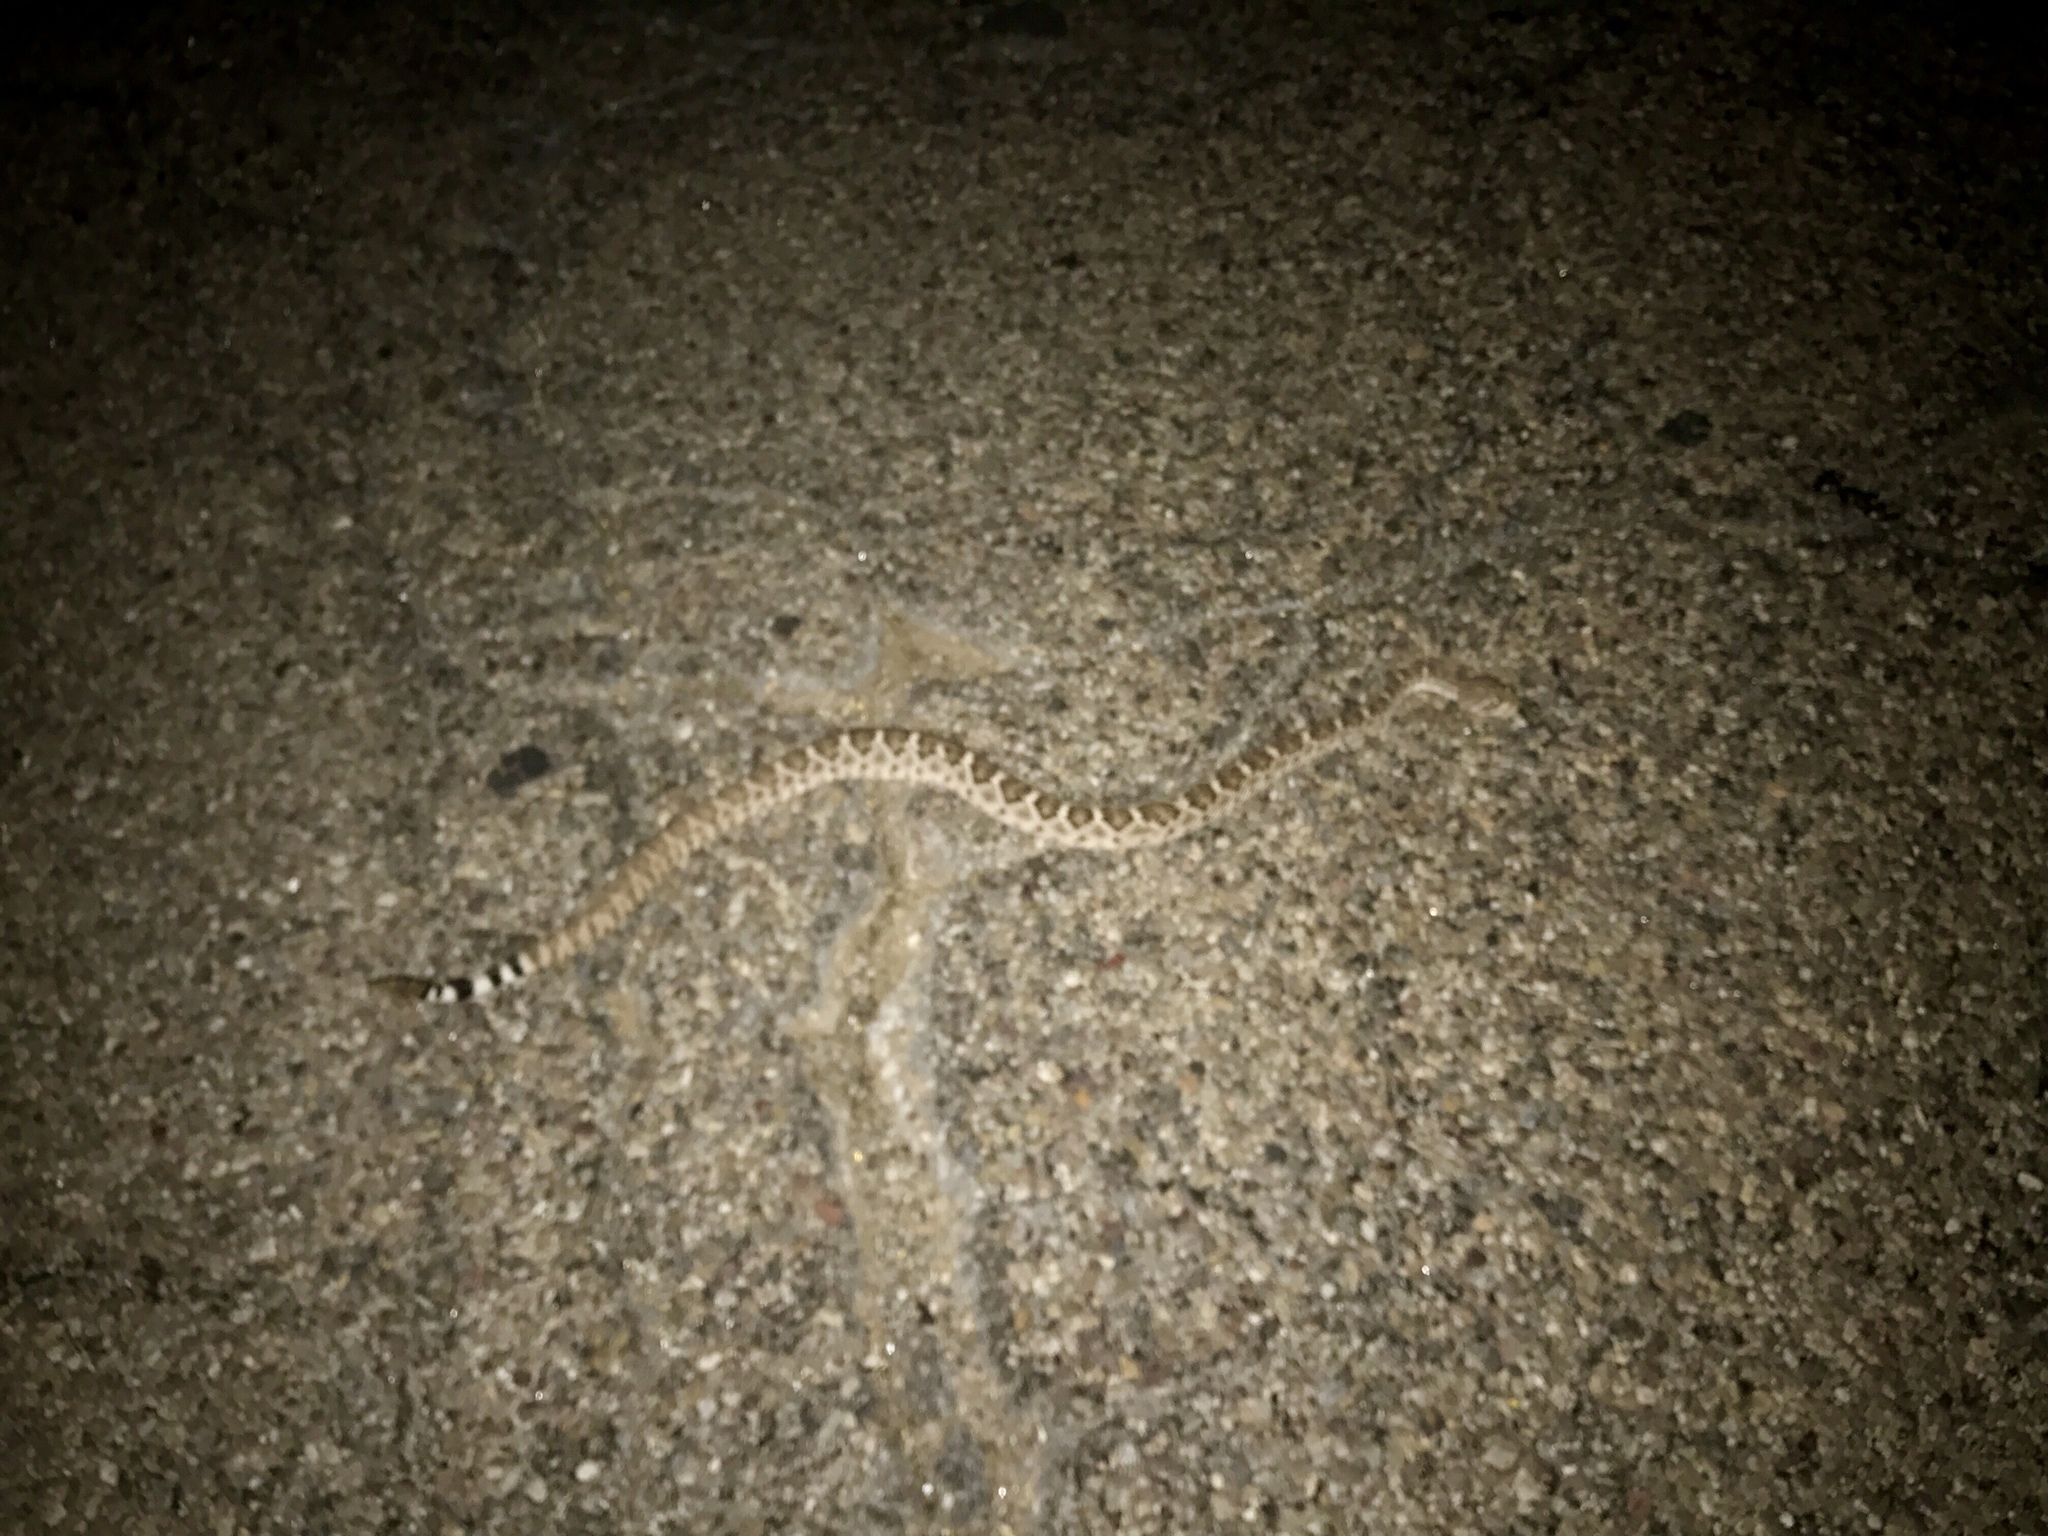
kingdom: Animalia
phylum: Chordata
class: Squamata
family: Viperidae
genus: Crotalus
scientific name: Crotalus atrox
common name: Western diamond-backed rattlesnake
